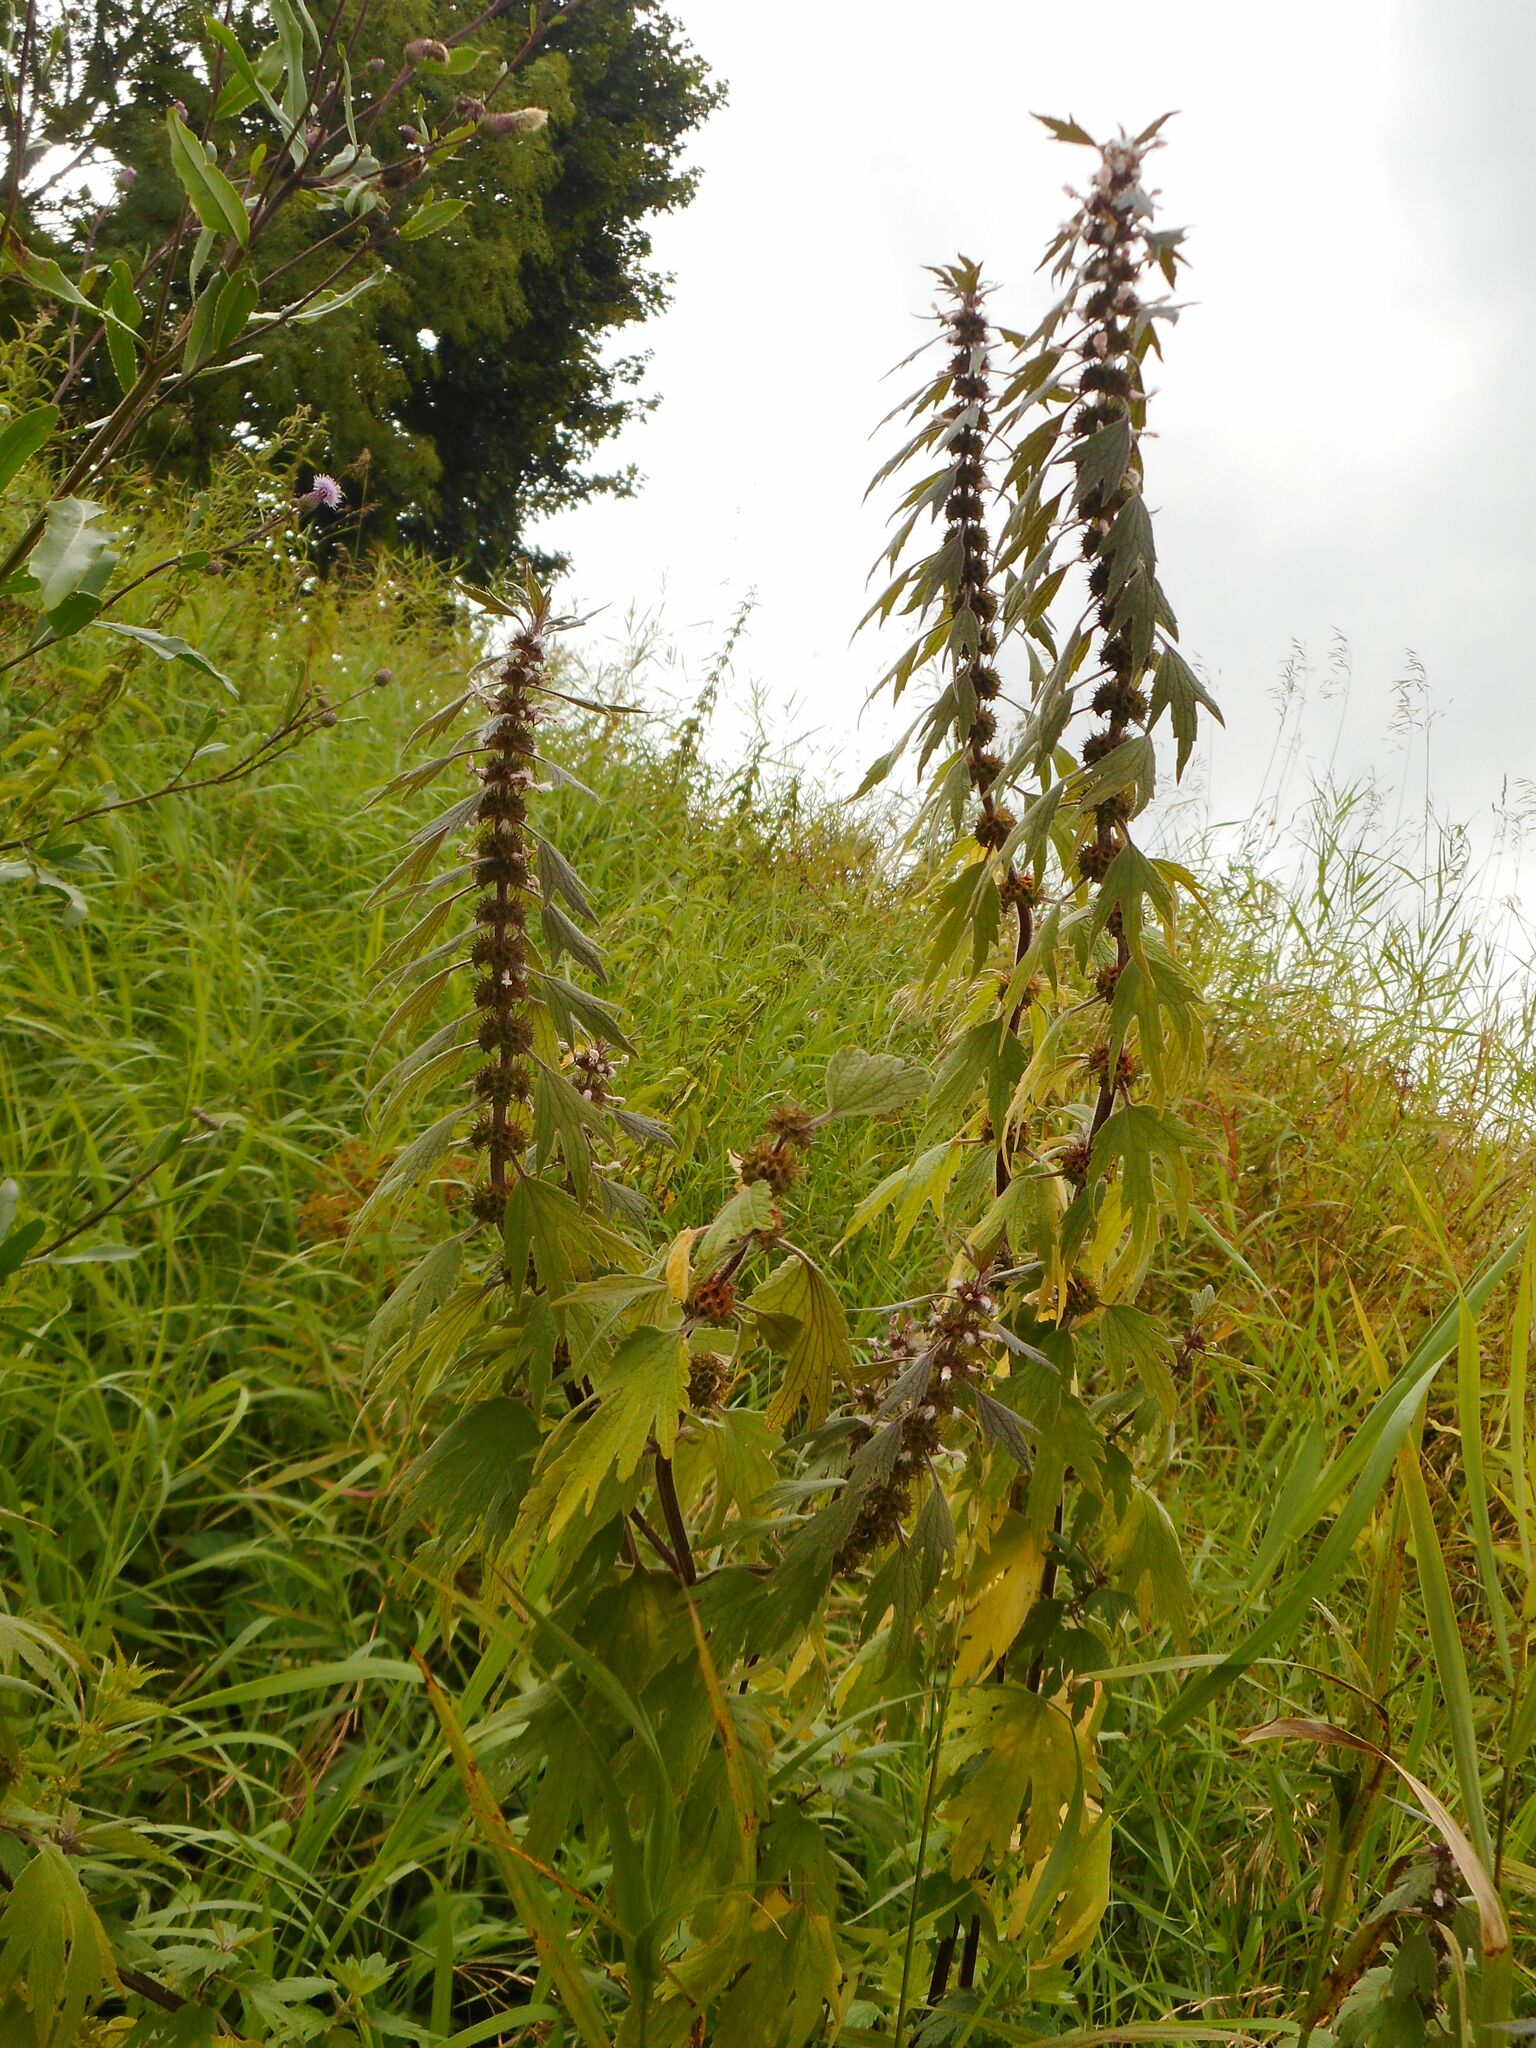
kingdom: Plantae
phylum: Tracheophyta
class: Magnoliopsida
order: Lamiales
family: Lamiaceae
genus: Leonurus
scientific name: Leonurus quinquelobatus
